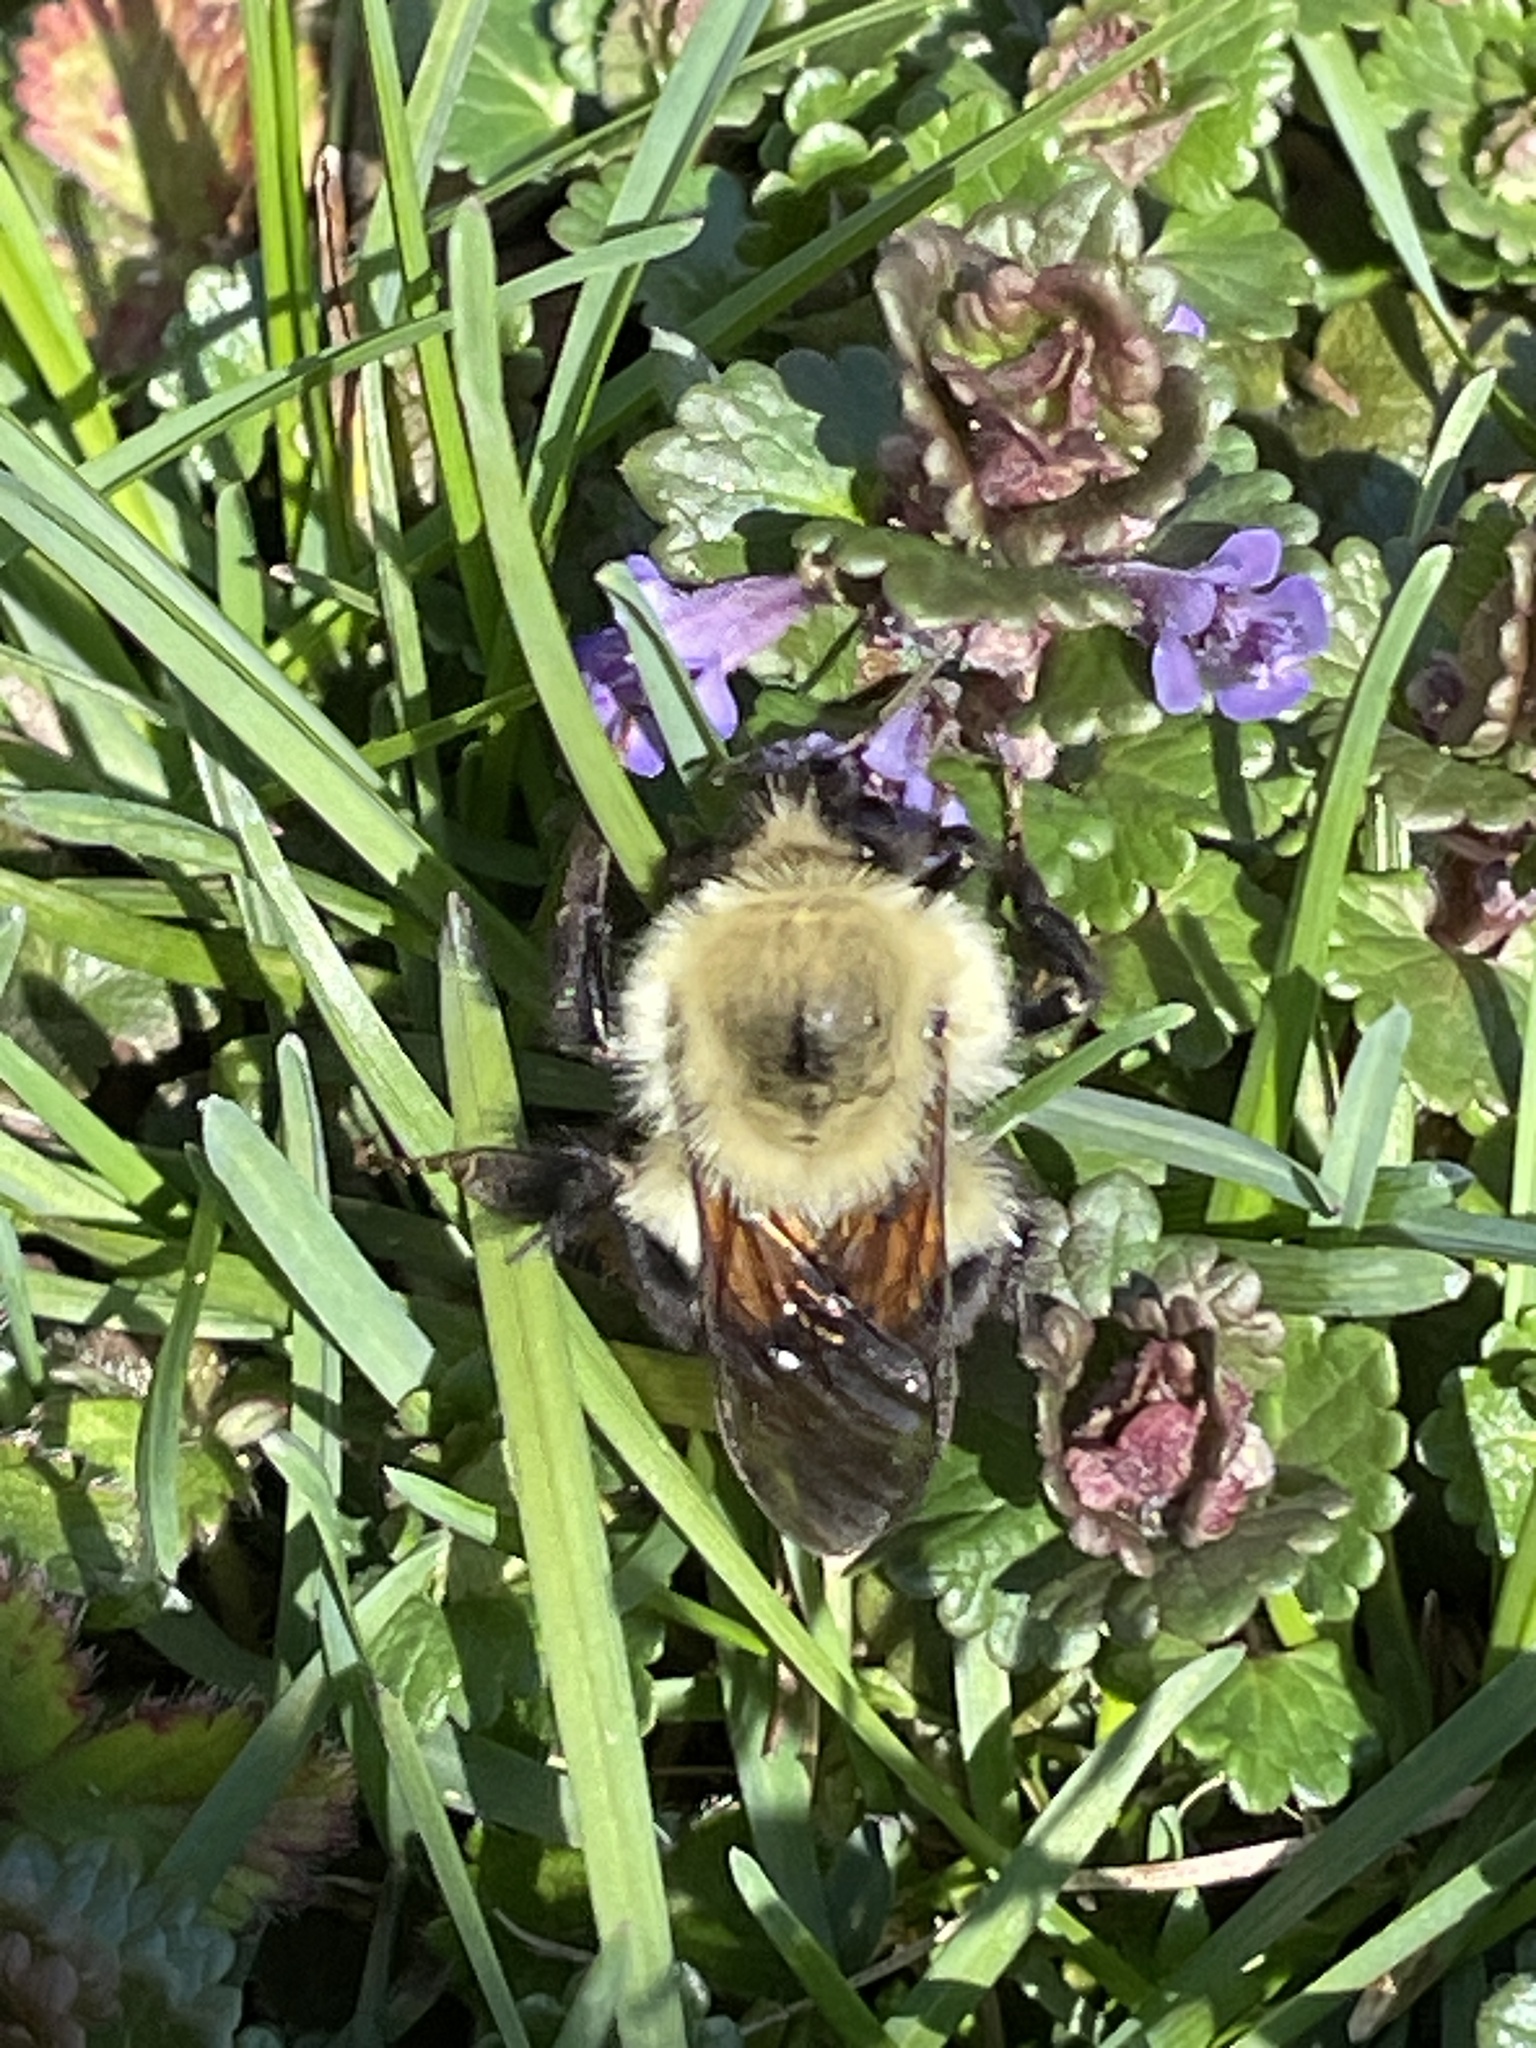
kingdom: Animalia
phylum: Arthropoda
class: Insecta
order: Hymenoptera
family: Apidae
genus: Bombus
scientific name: Bombus bimaculatus
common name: Two-spotted bumble bee
